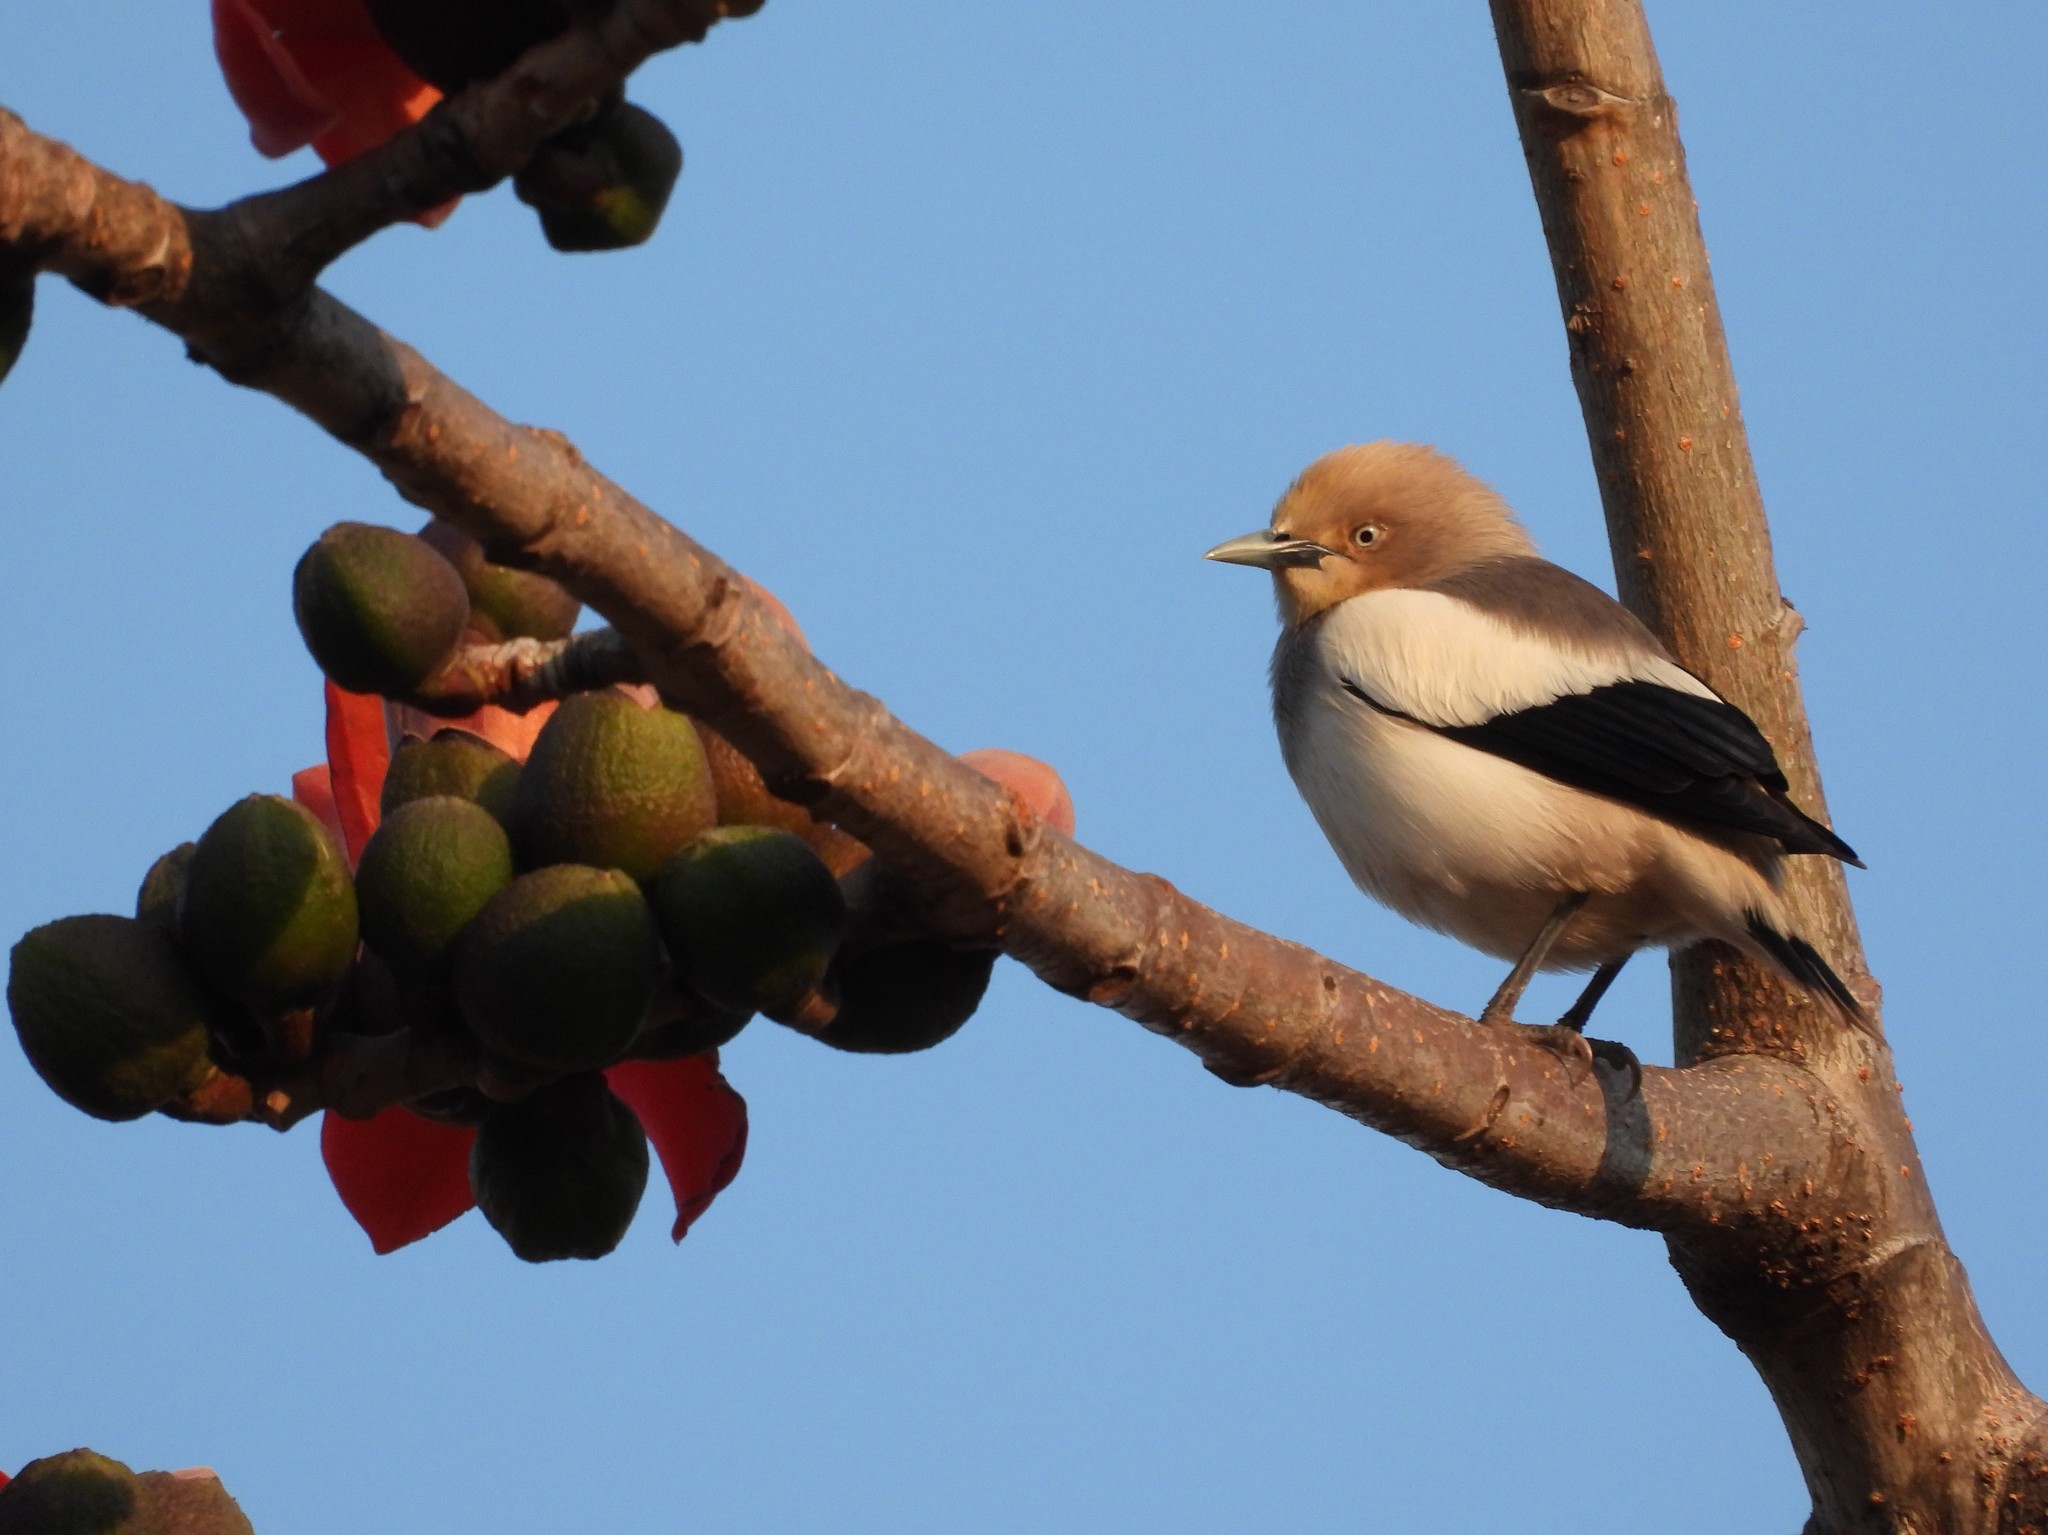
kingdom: Animalia
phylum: Chordata
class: Aves
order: Passeriformes
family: Sturnidae
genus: Sturnia
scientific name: Sturnia sinensis
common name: White-shouldered starling
